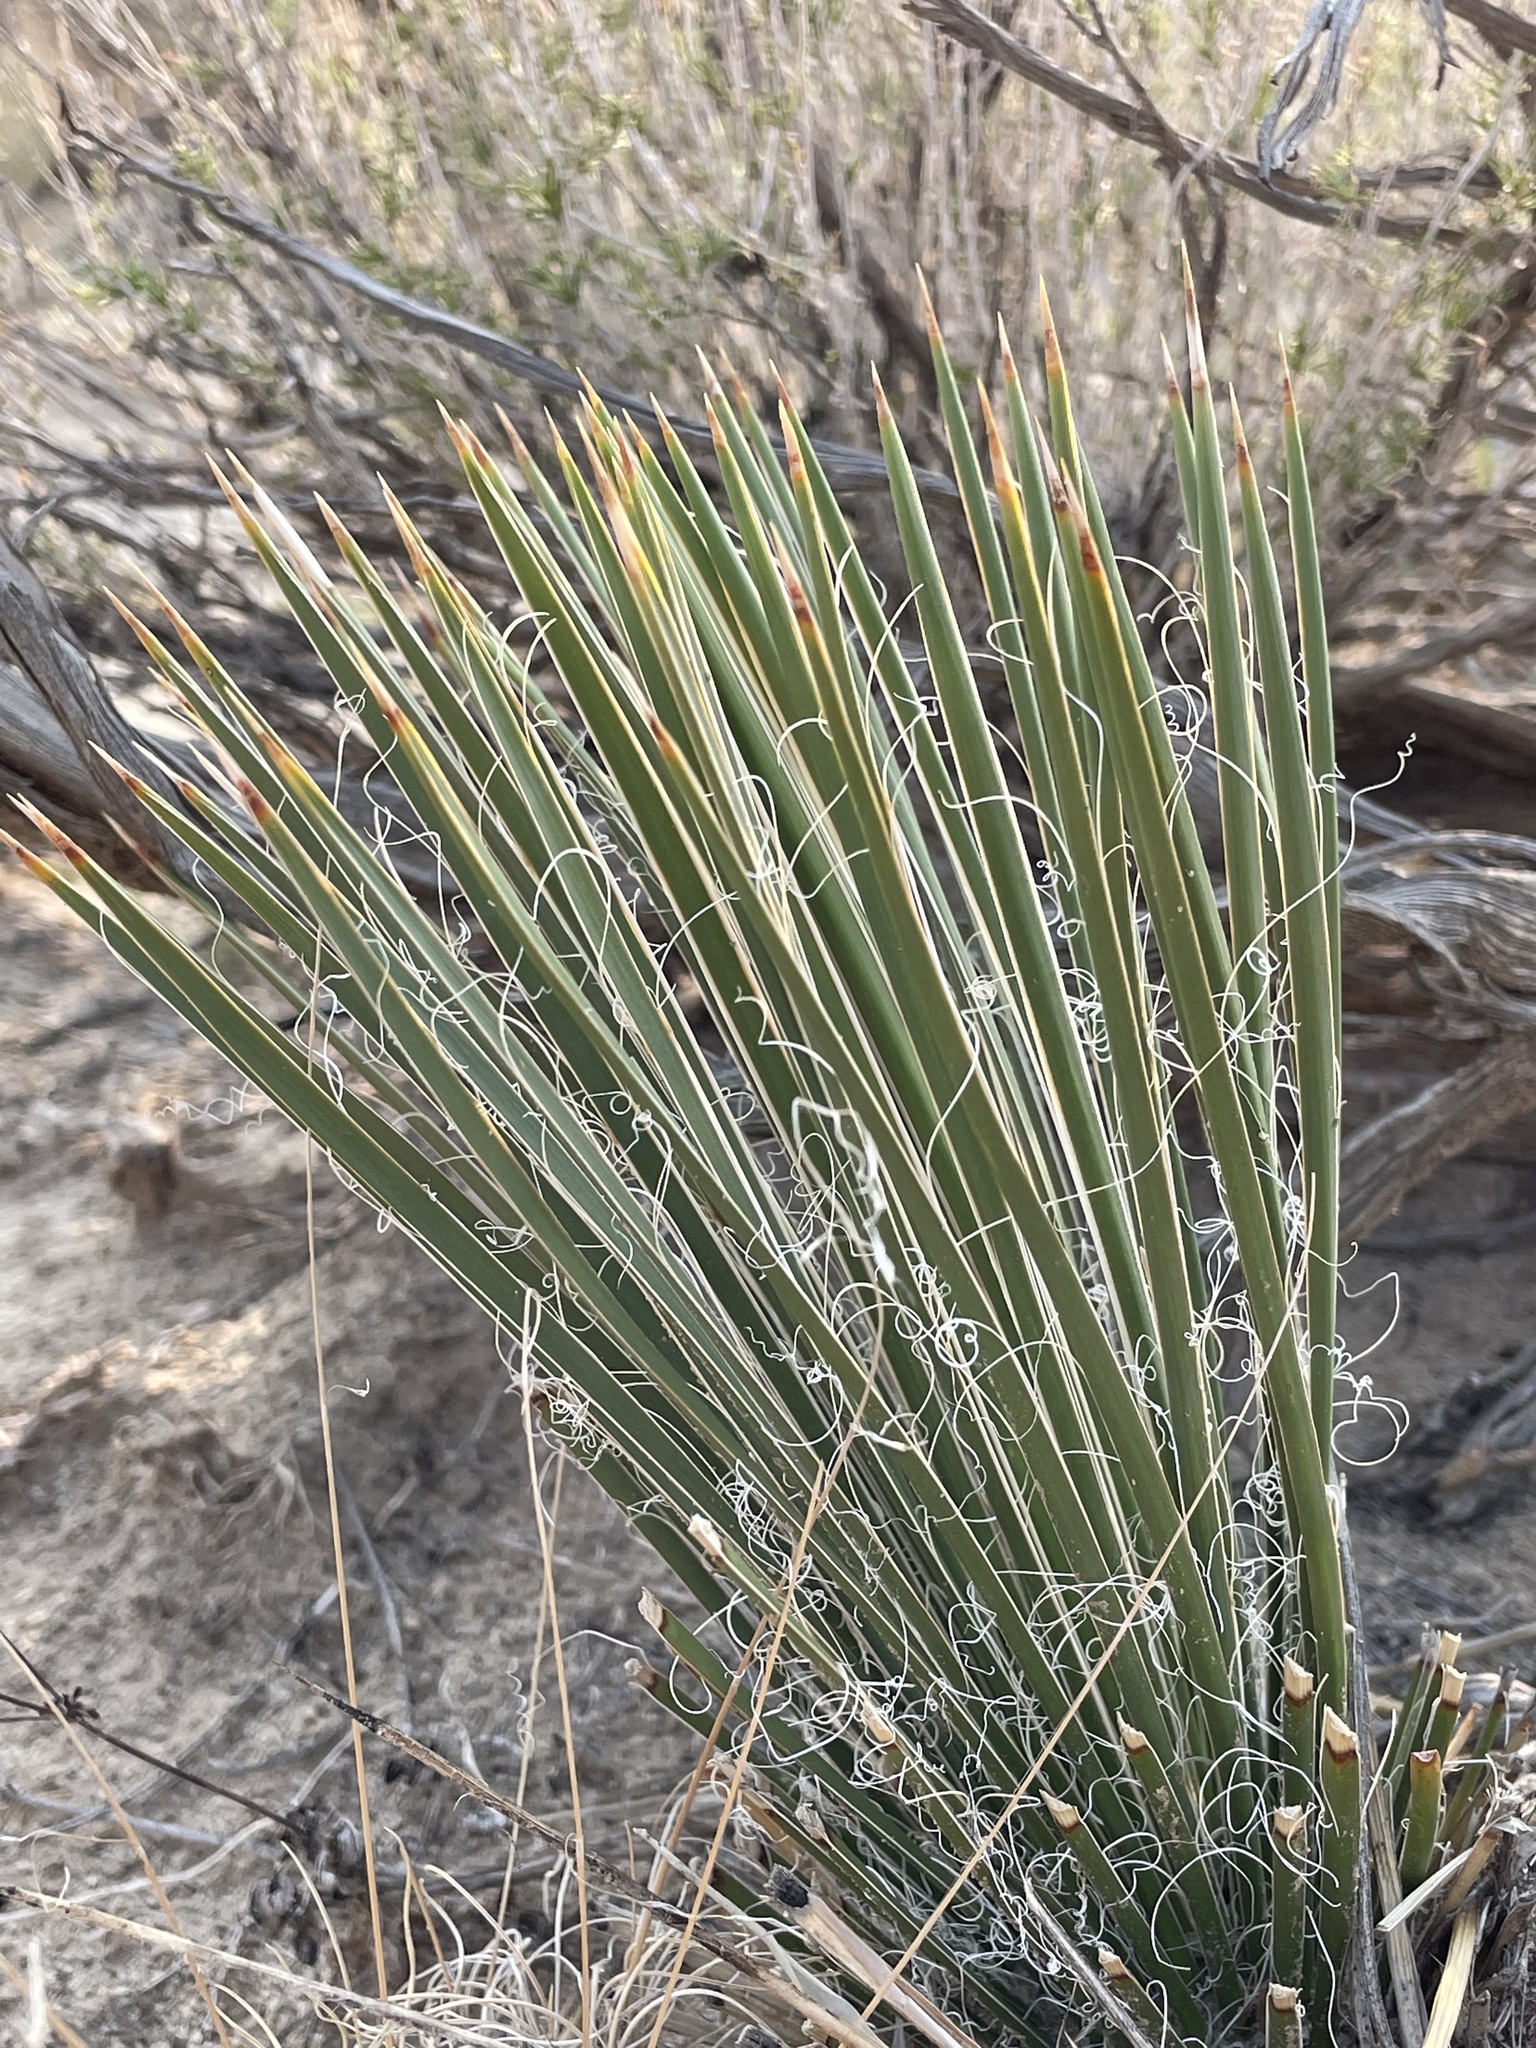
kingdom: Plantae
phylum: Tracheophyta
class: Liliopsida
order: Asparagales
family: Asparagaceae
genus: Yucca
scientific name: Yucca baileyi
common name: Alpine yucca
